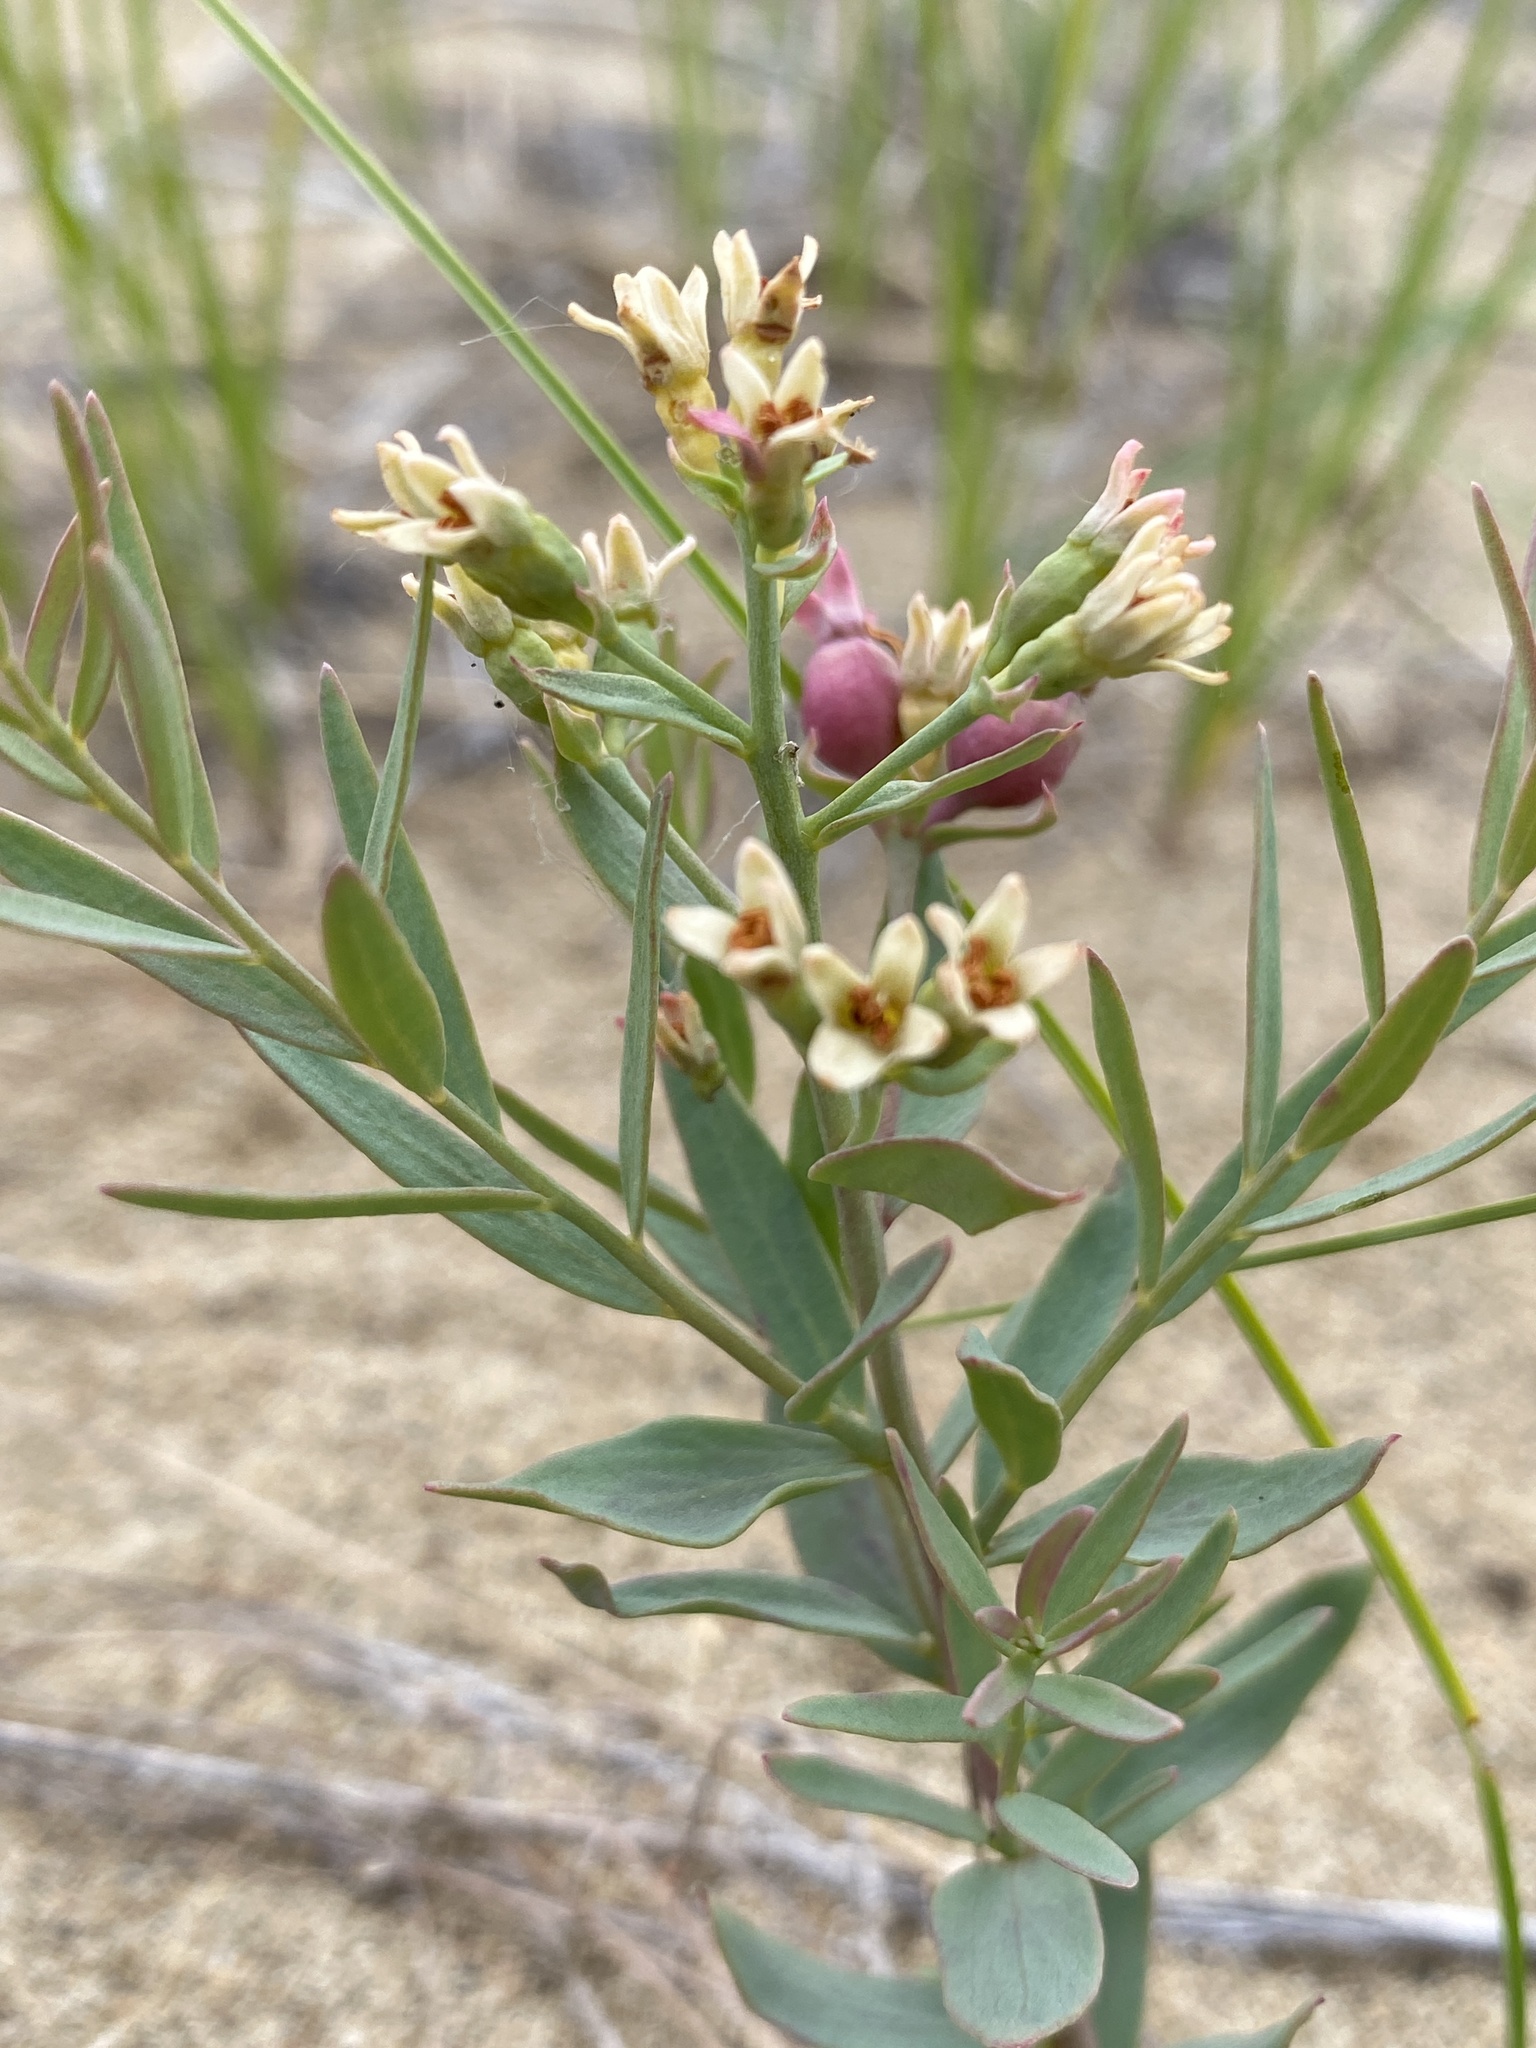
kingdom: Plantae
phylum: Tracheophyta
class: Magnoliopsida
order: Santalales
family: Comandraceae
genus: Comandra
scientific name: Comandra umbellata
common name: Bastard toadflax
